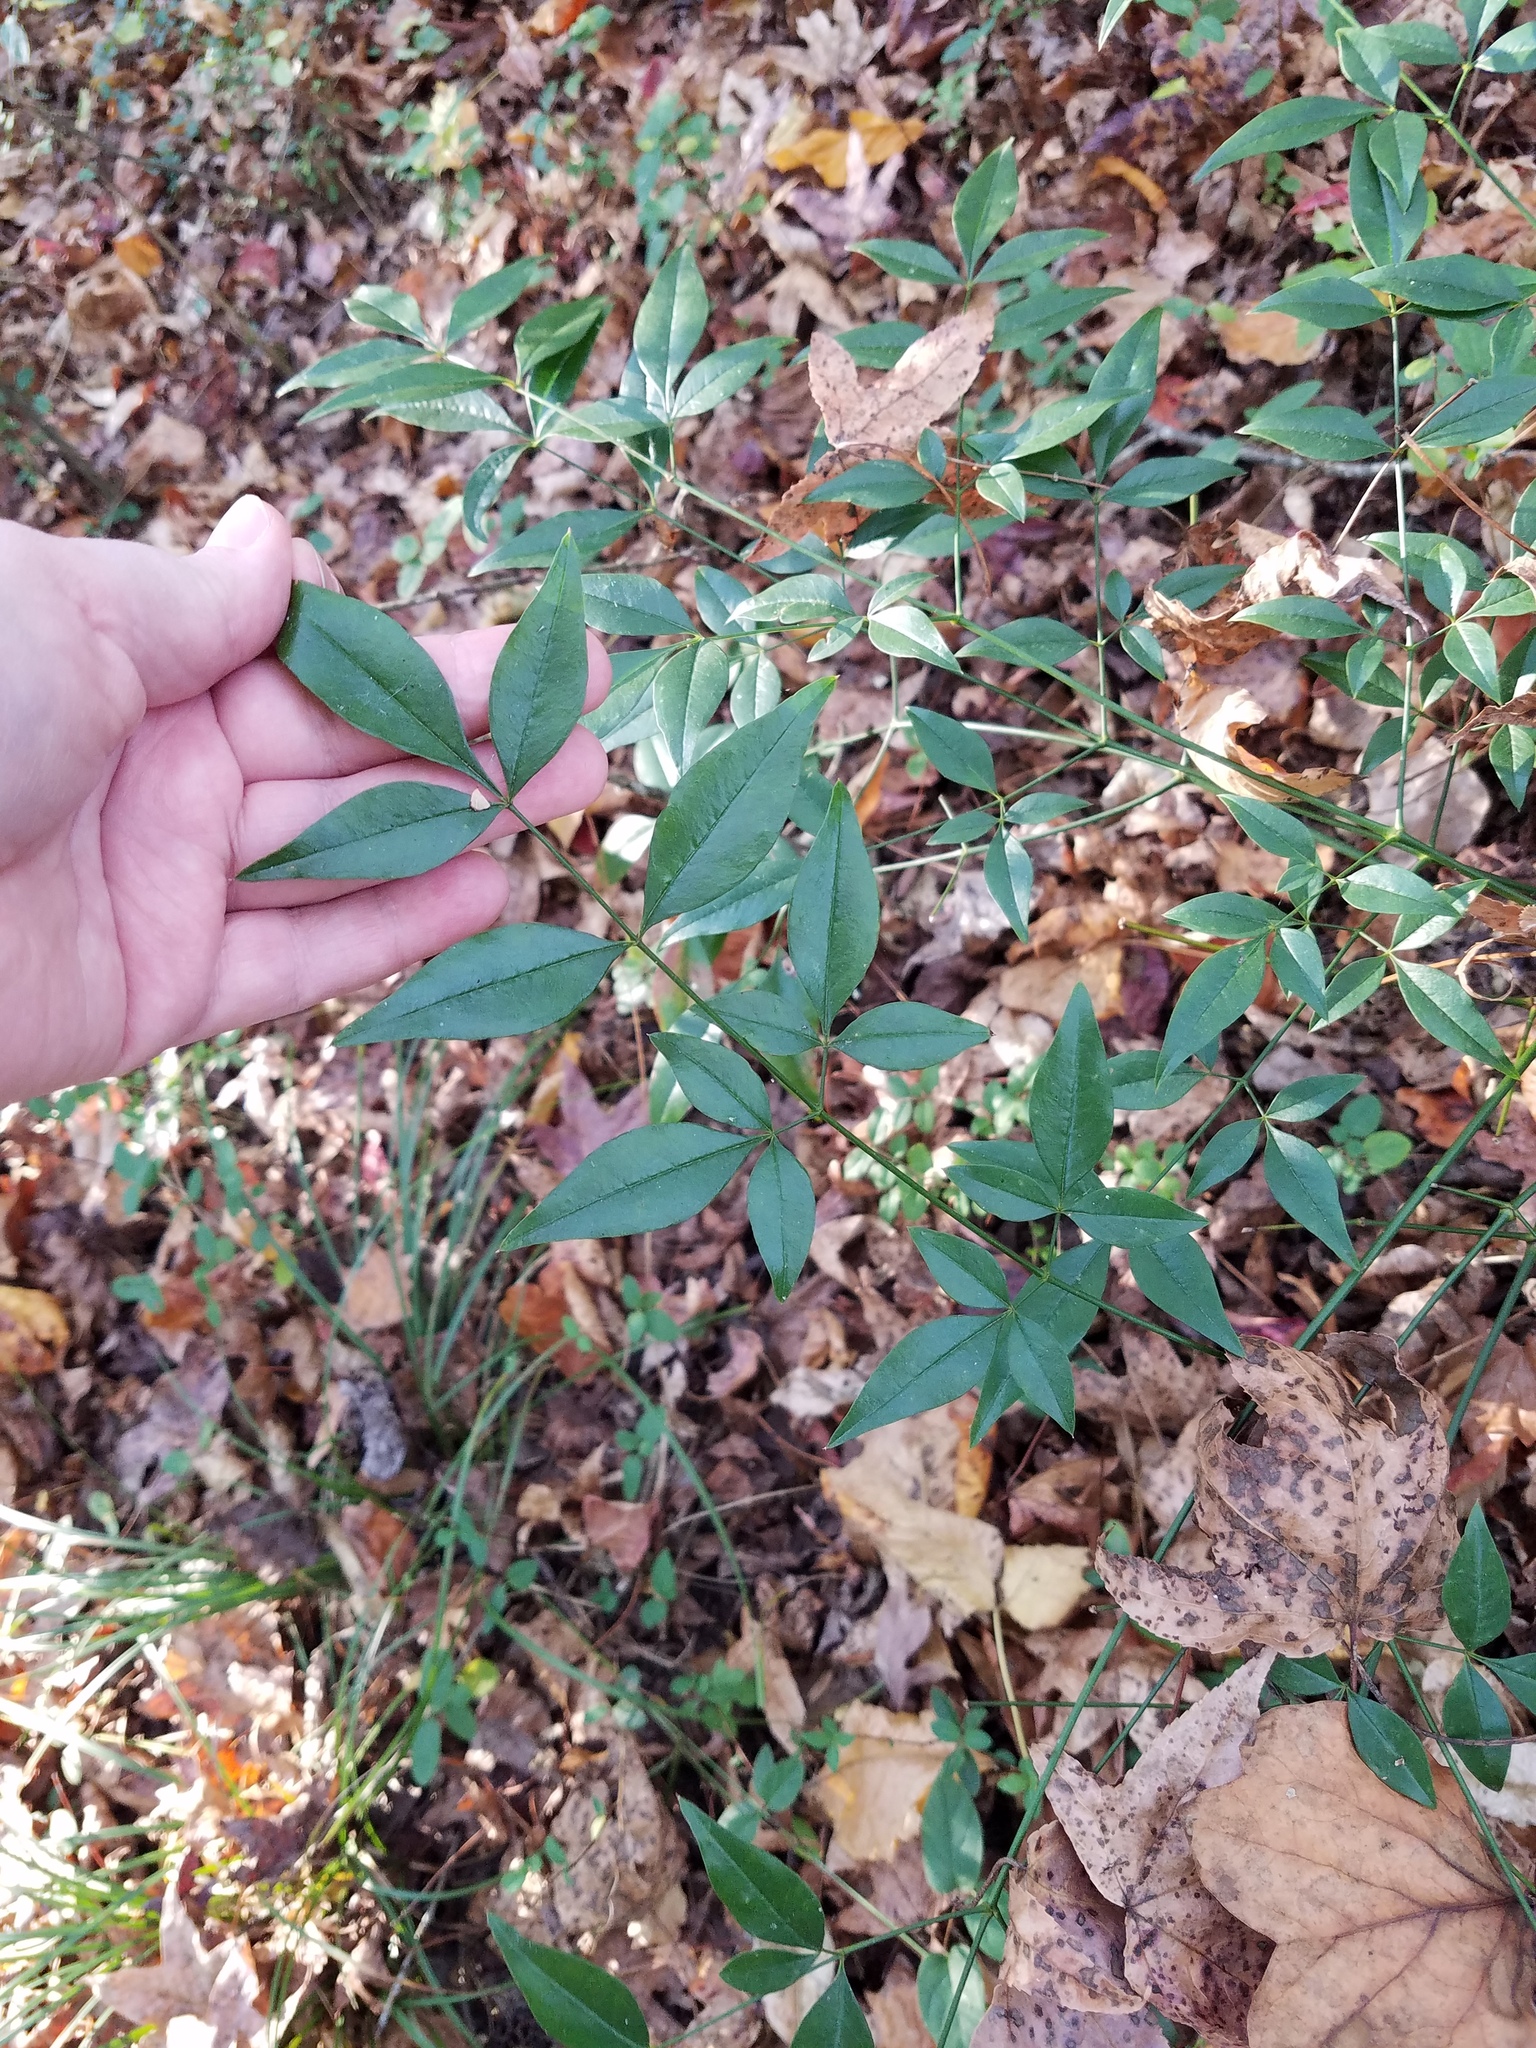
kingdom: Plantae
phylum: Tracheophyta
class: Magnoliopsida
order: Ranunculales
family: Berberidaceae
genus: Nandina
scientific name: Nandina domestica
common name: Sacred bamboo
